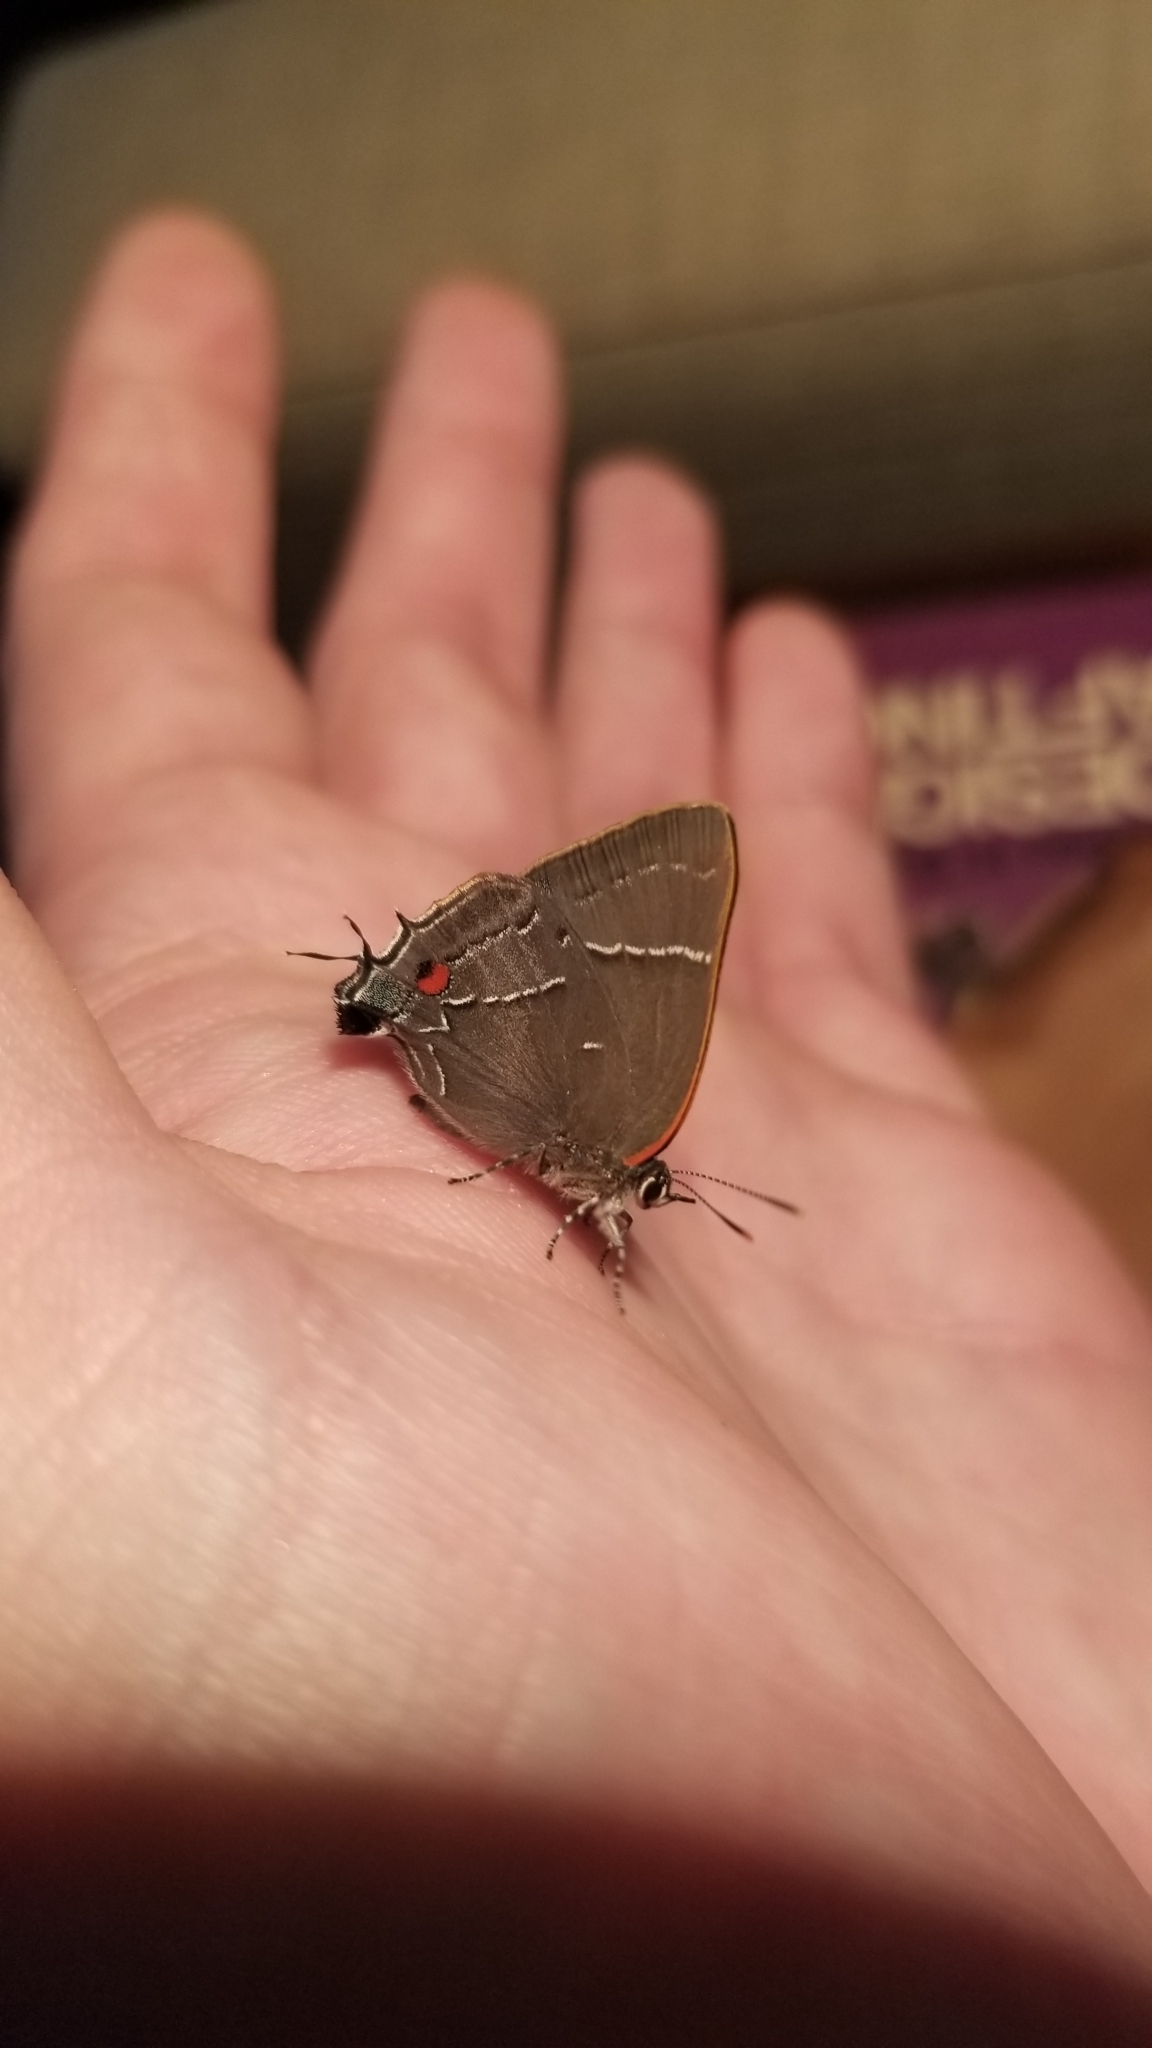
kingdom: Animalia
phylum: Arthropoda
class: Insecta
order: Lepidoptera
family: Lycaenidae
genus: Parrhasius
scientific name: Parrhasius m-album
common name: White m hairstreak
